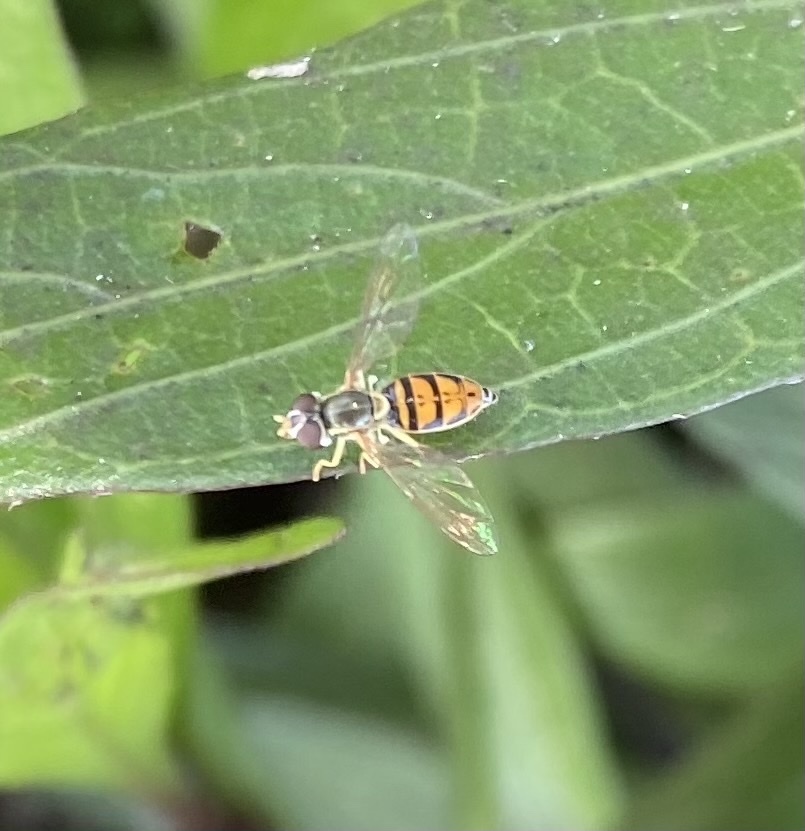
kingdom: Animalia
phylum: Arthropoda
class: Insecta
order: Diptera
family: Syrphidae
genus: Toxomerus
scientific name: Toxomerus marginatus
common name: Syrphid fly
